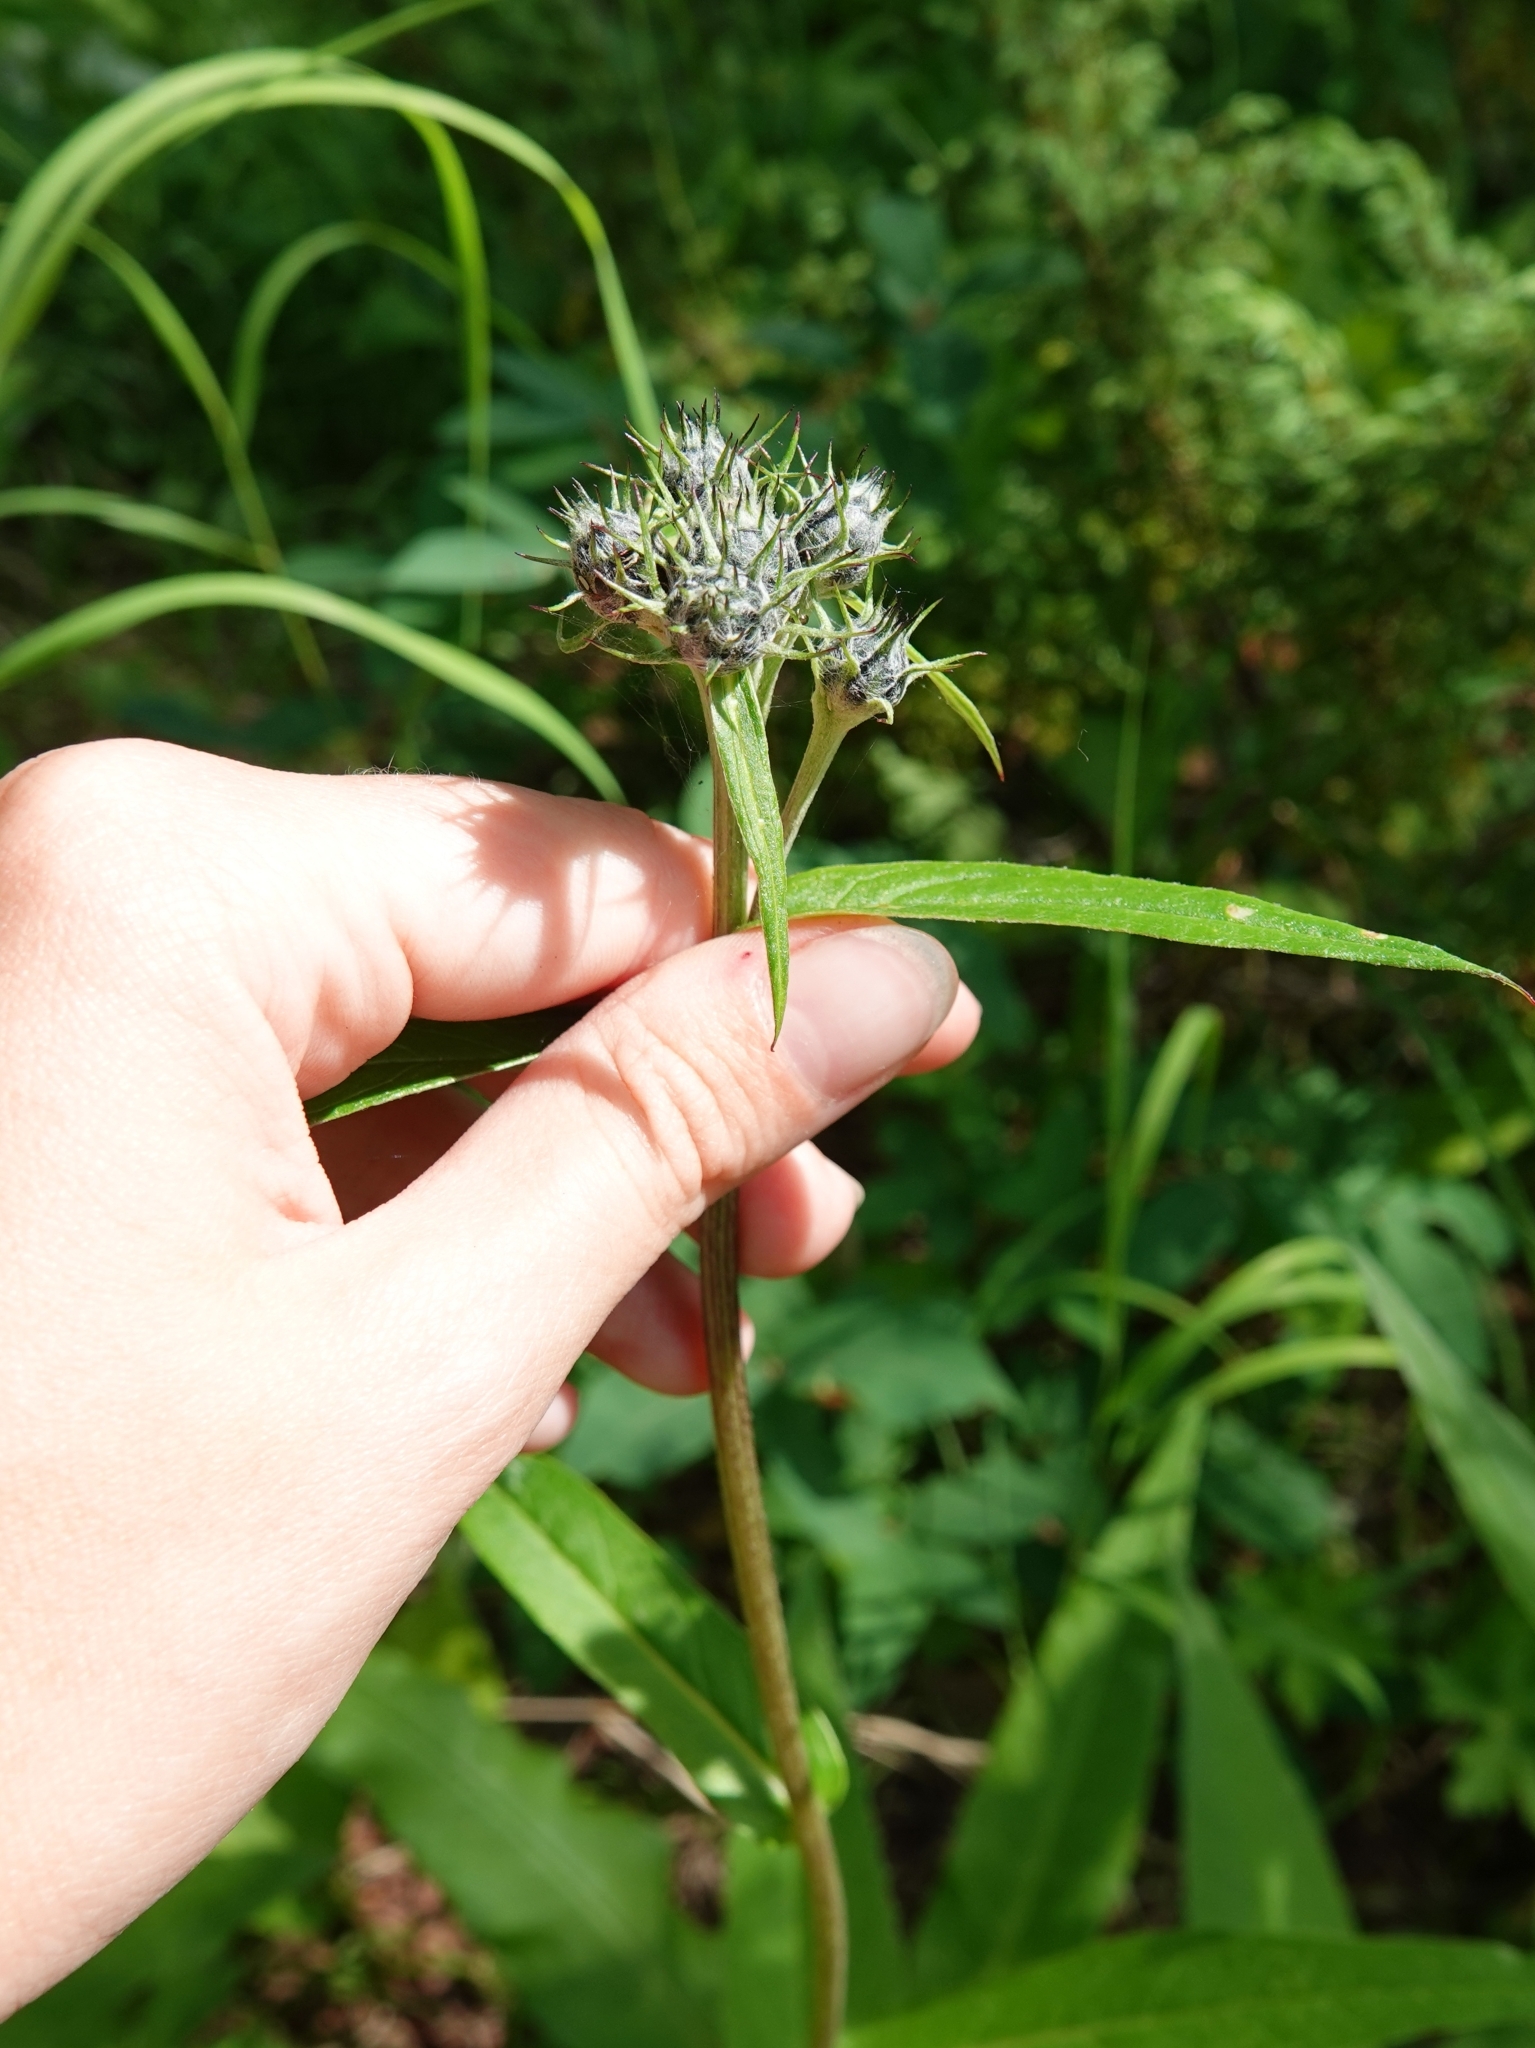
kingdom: Plantae
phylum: Tracheophyta
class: Magnoliopsida
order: Asterales
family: Asteraceae
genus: Saussurea
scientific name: Saussurea pseudotilesii
